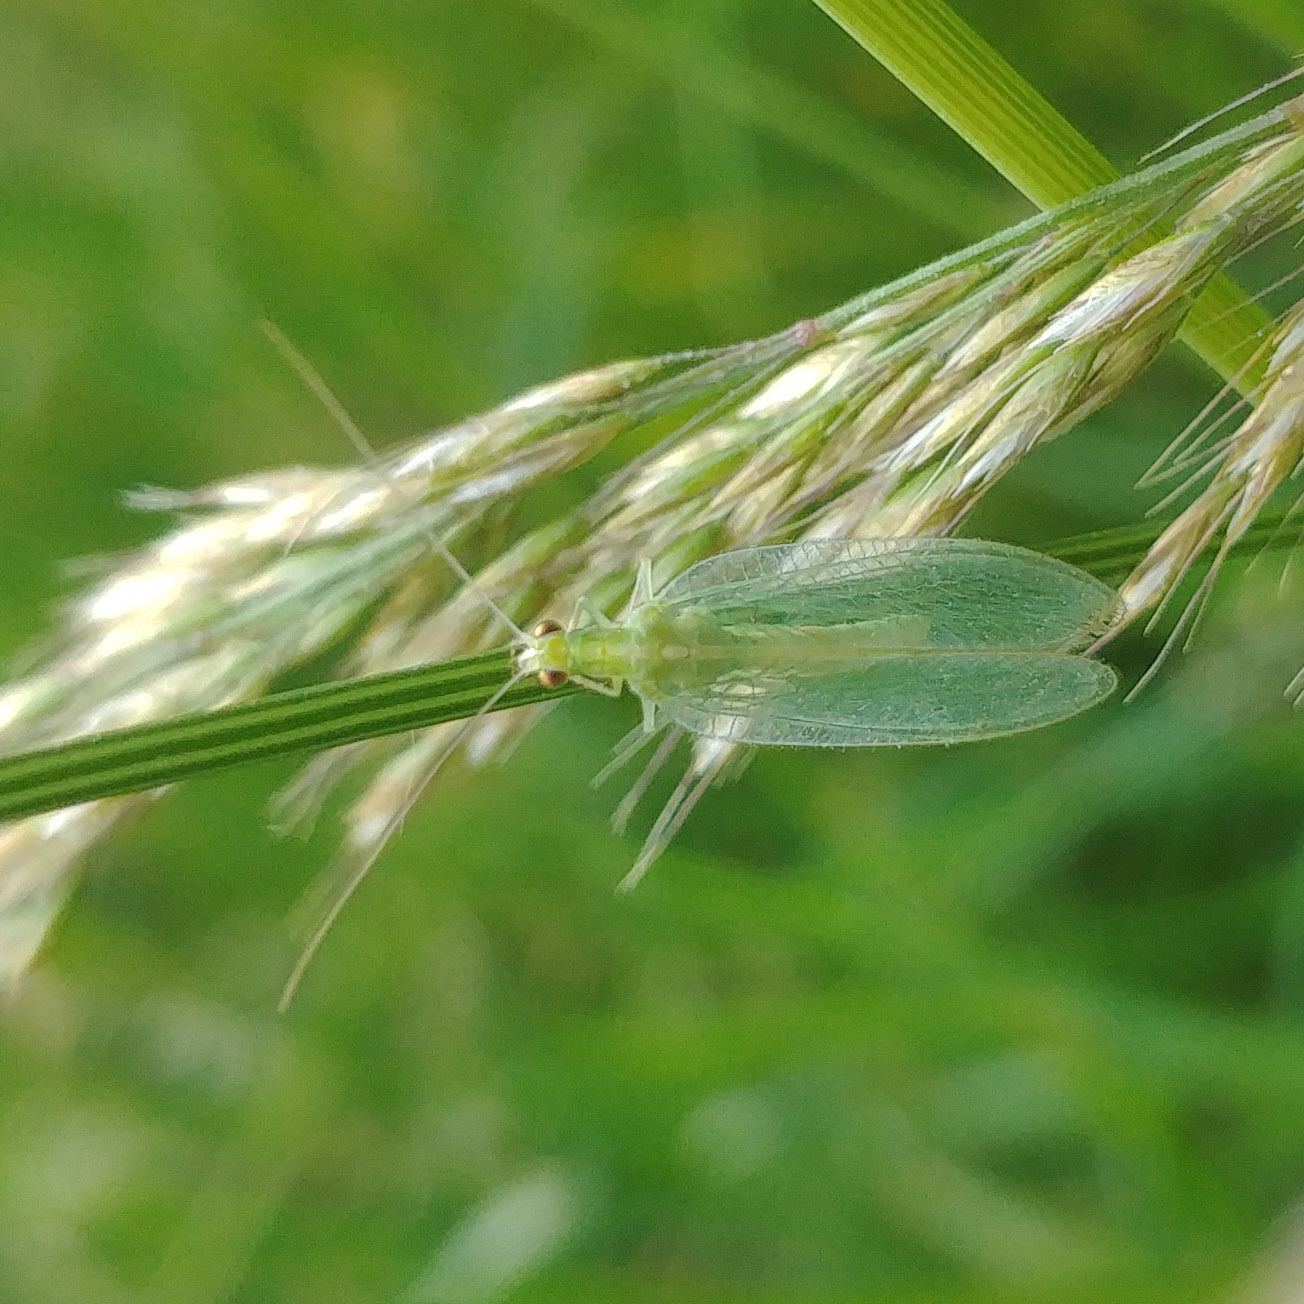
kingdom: Animalia
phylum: Arthropoda
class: Insecta
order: Neuroptera
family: Chrysopidae
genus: Chrysoperla
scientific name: Chrysoperla
